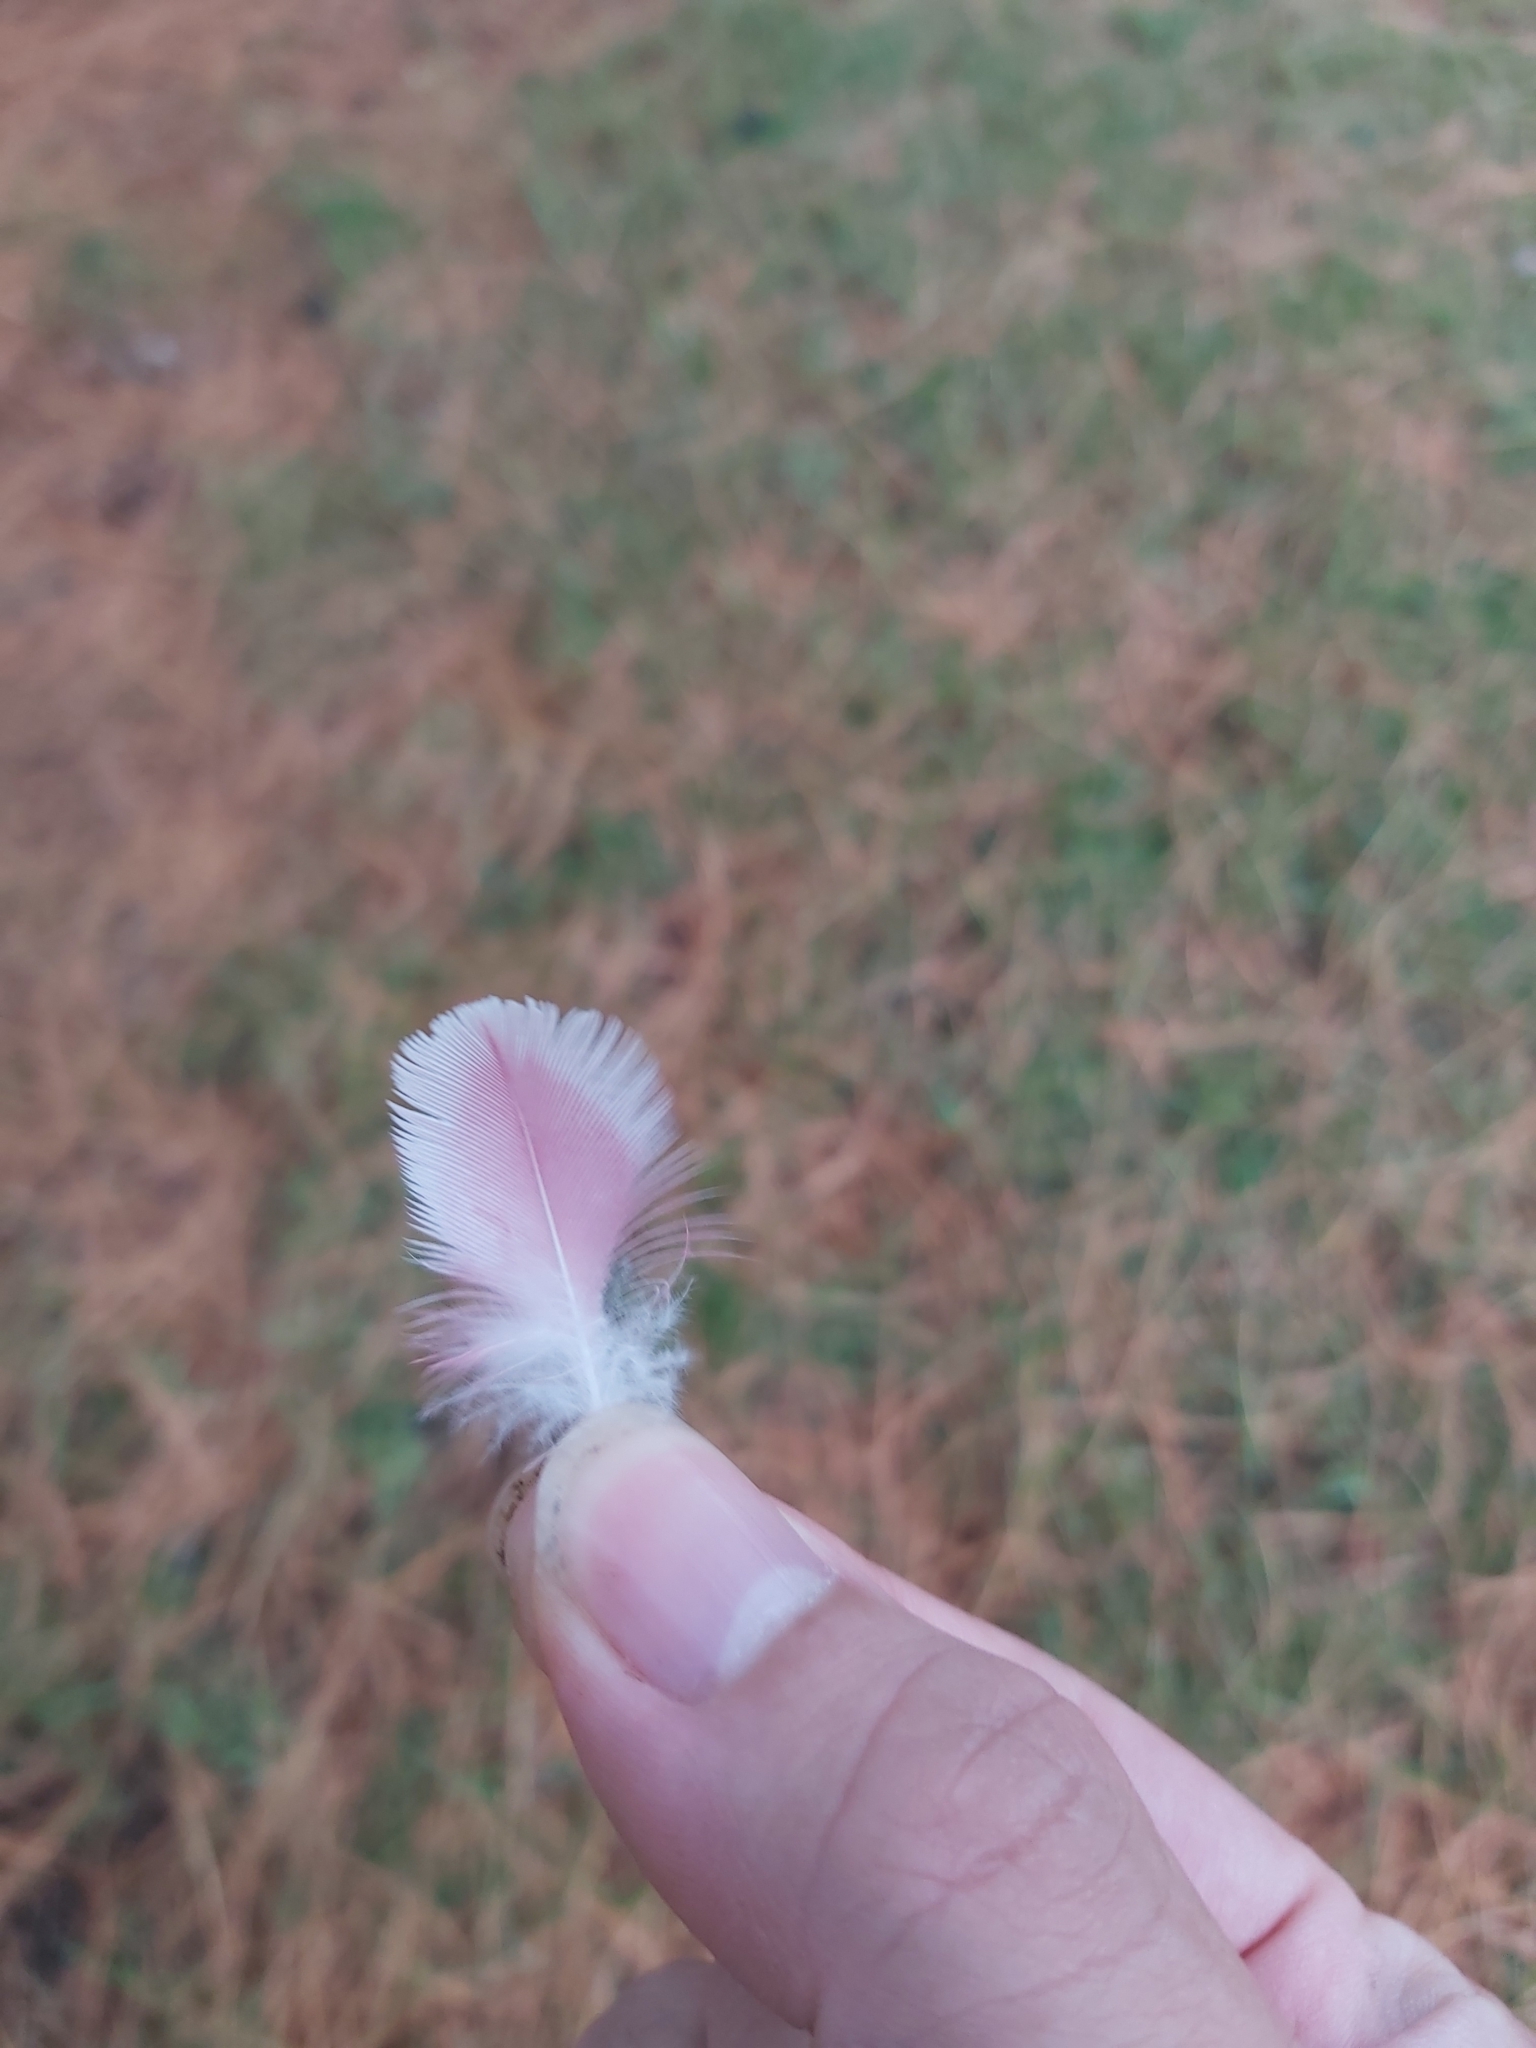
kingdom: Animalia
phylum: Chordata
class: Aves
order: Psittaciformes
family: Psittacidae
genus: Eolophus
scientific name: Eolophus roseicapilla
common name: Galah
